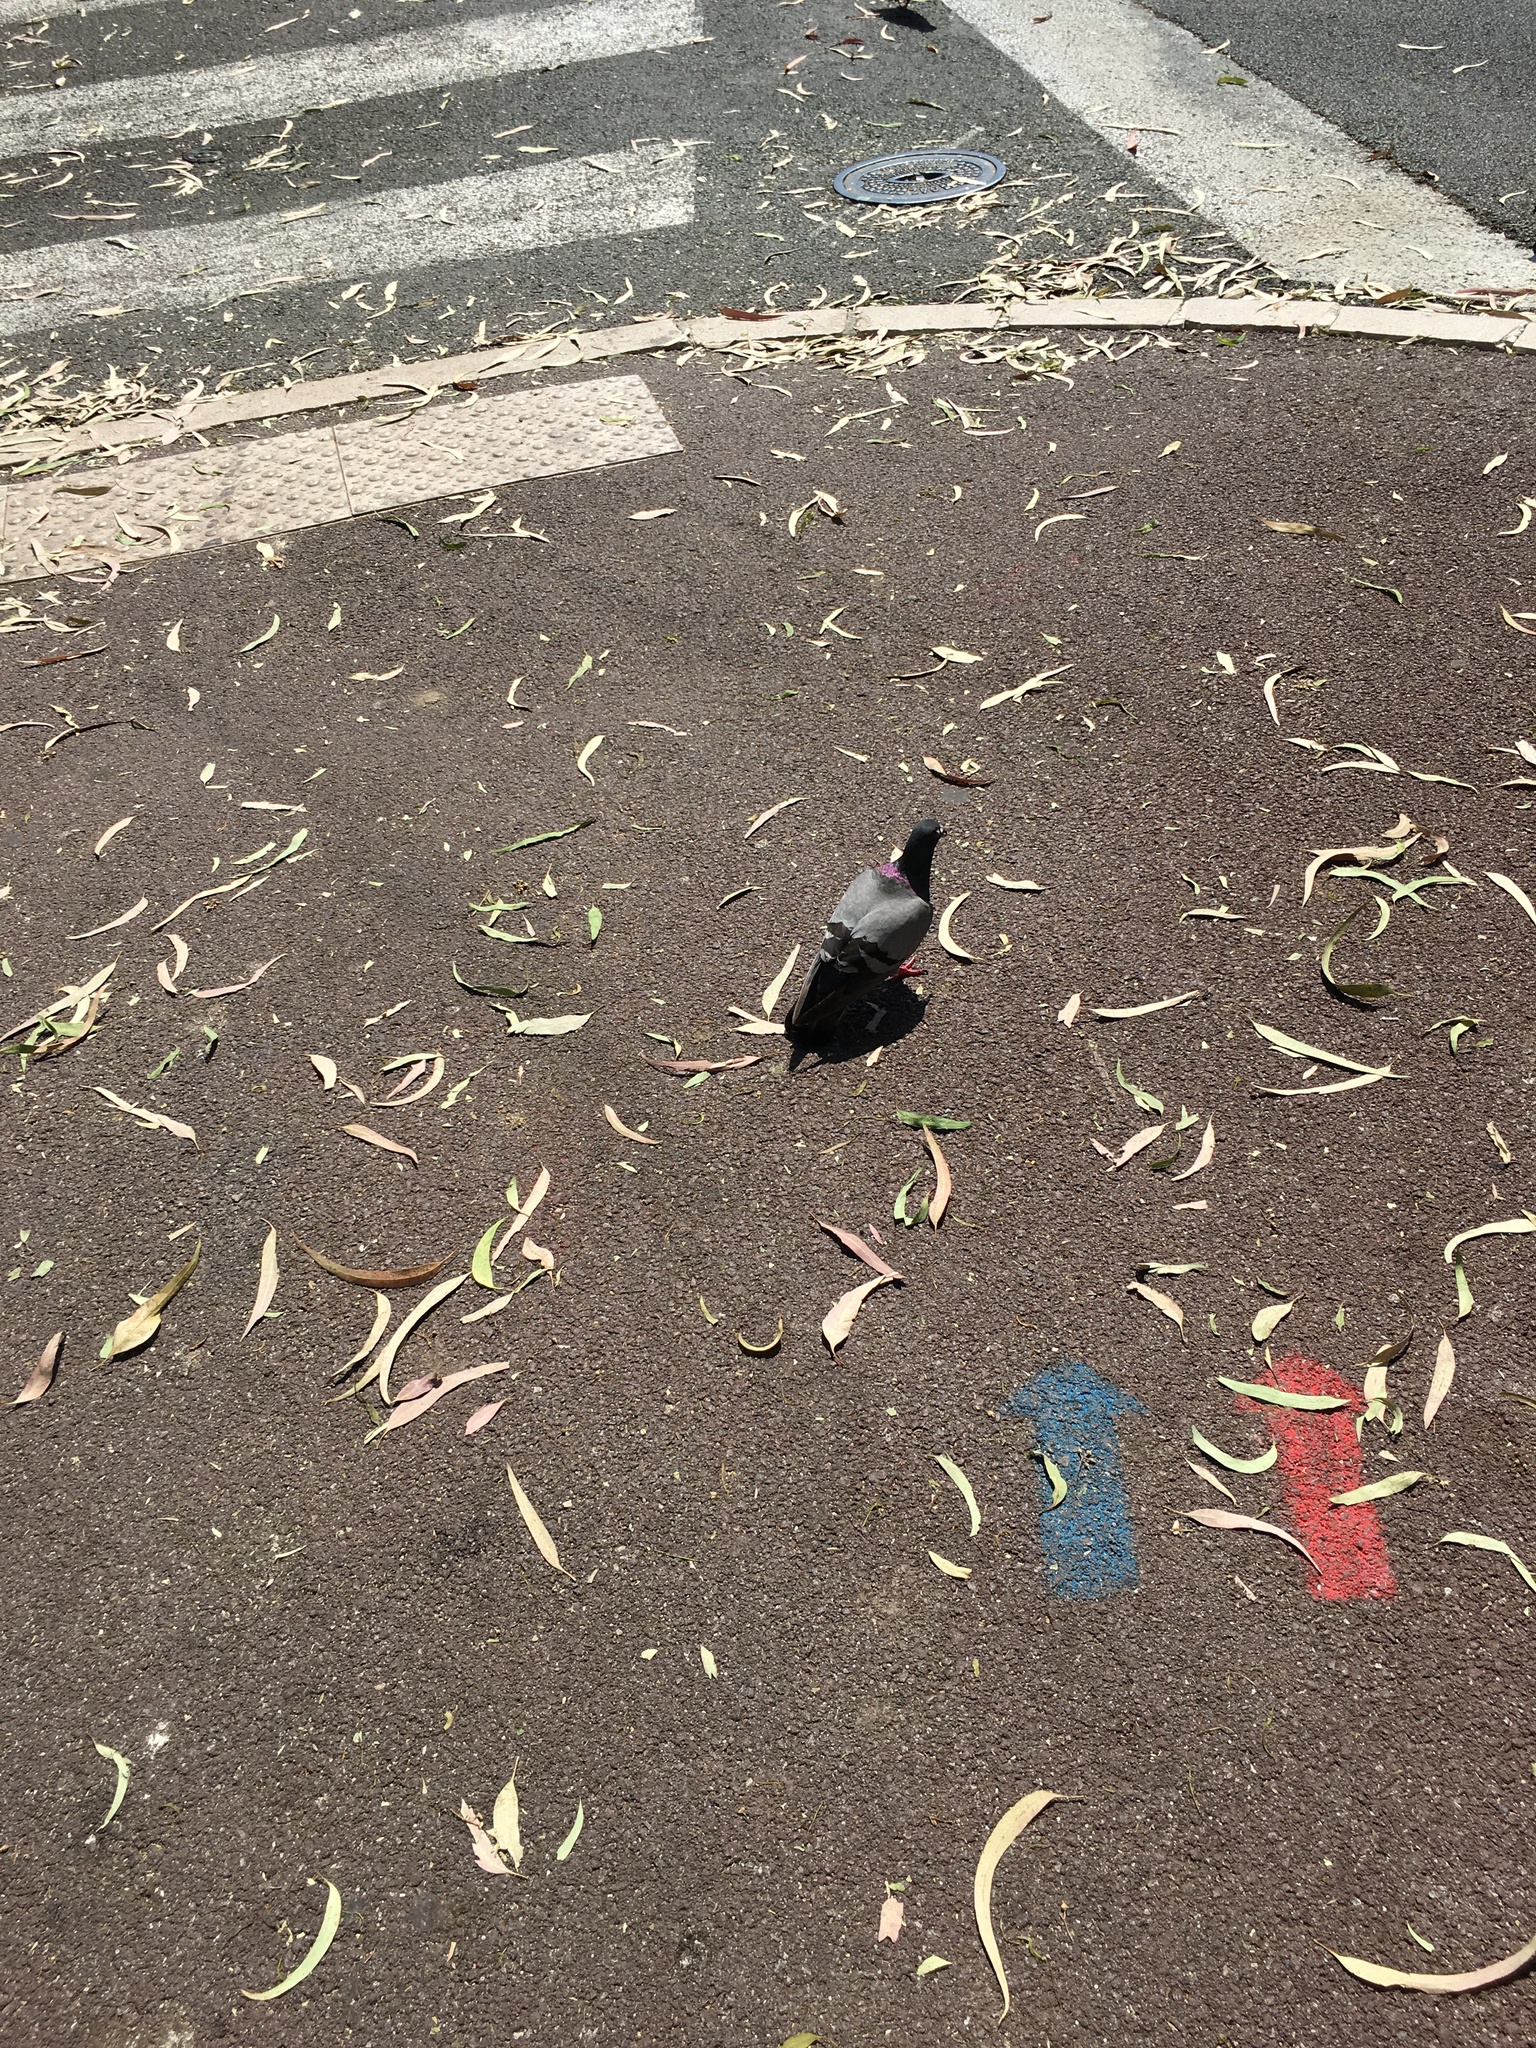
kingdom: Animalia
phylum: Chordata
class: Aves
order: Columbiformes
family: Columbidae
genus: Columba
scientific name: Columba livia
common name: Rock pigeon
